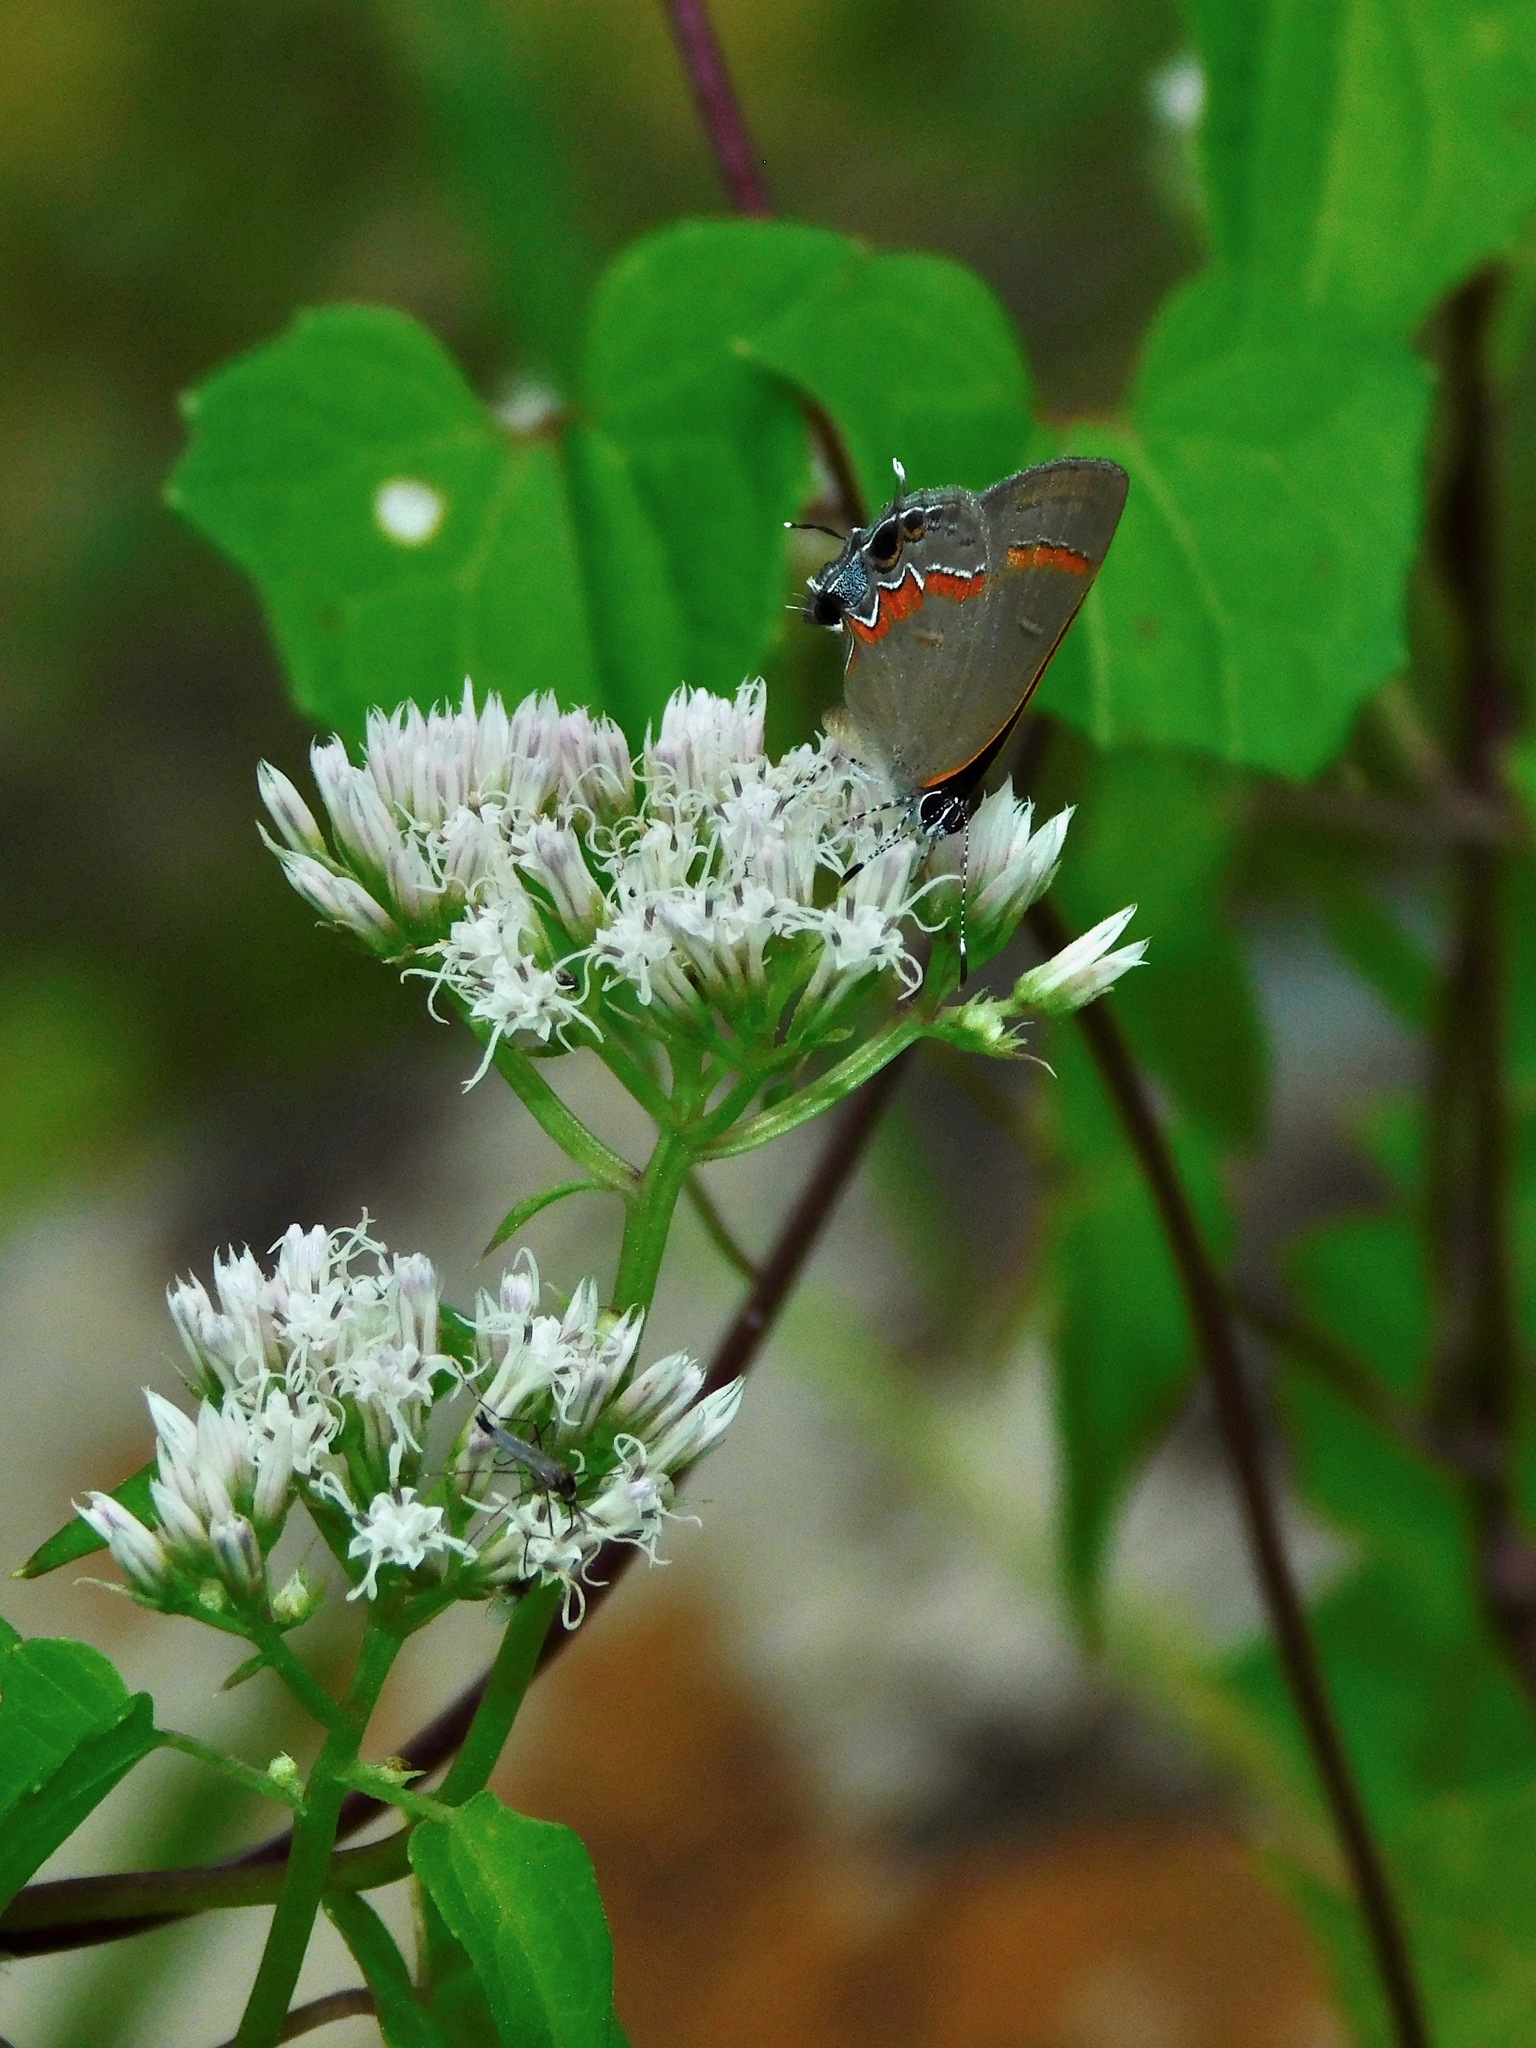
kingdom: Animalia
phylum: Arthropoda
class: Insecta
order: Lepidoptera
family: Lycaenidae
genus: Calycopis
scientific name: Calycopis cecrops
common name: Red-banded hairstreak
